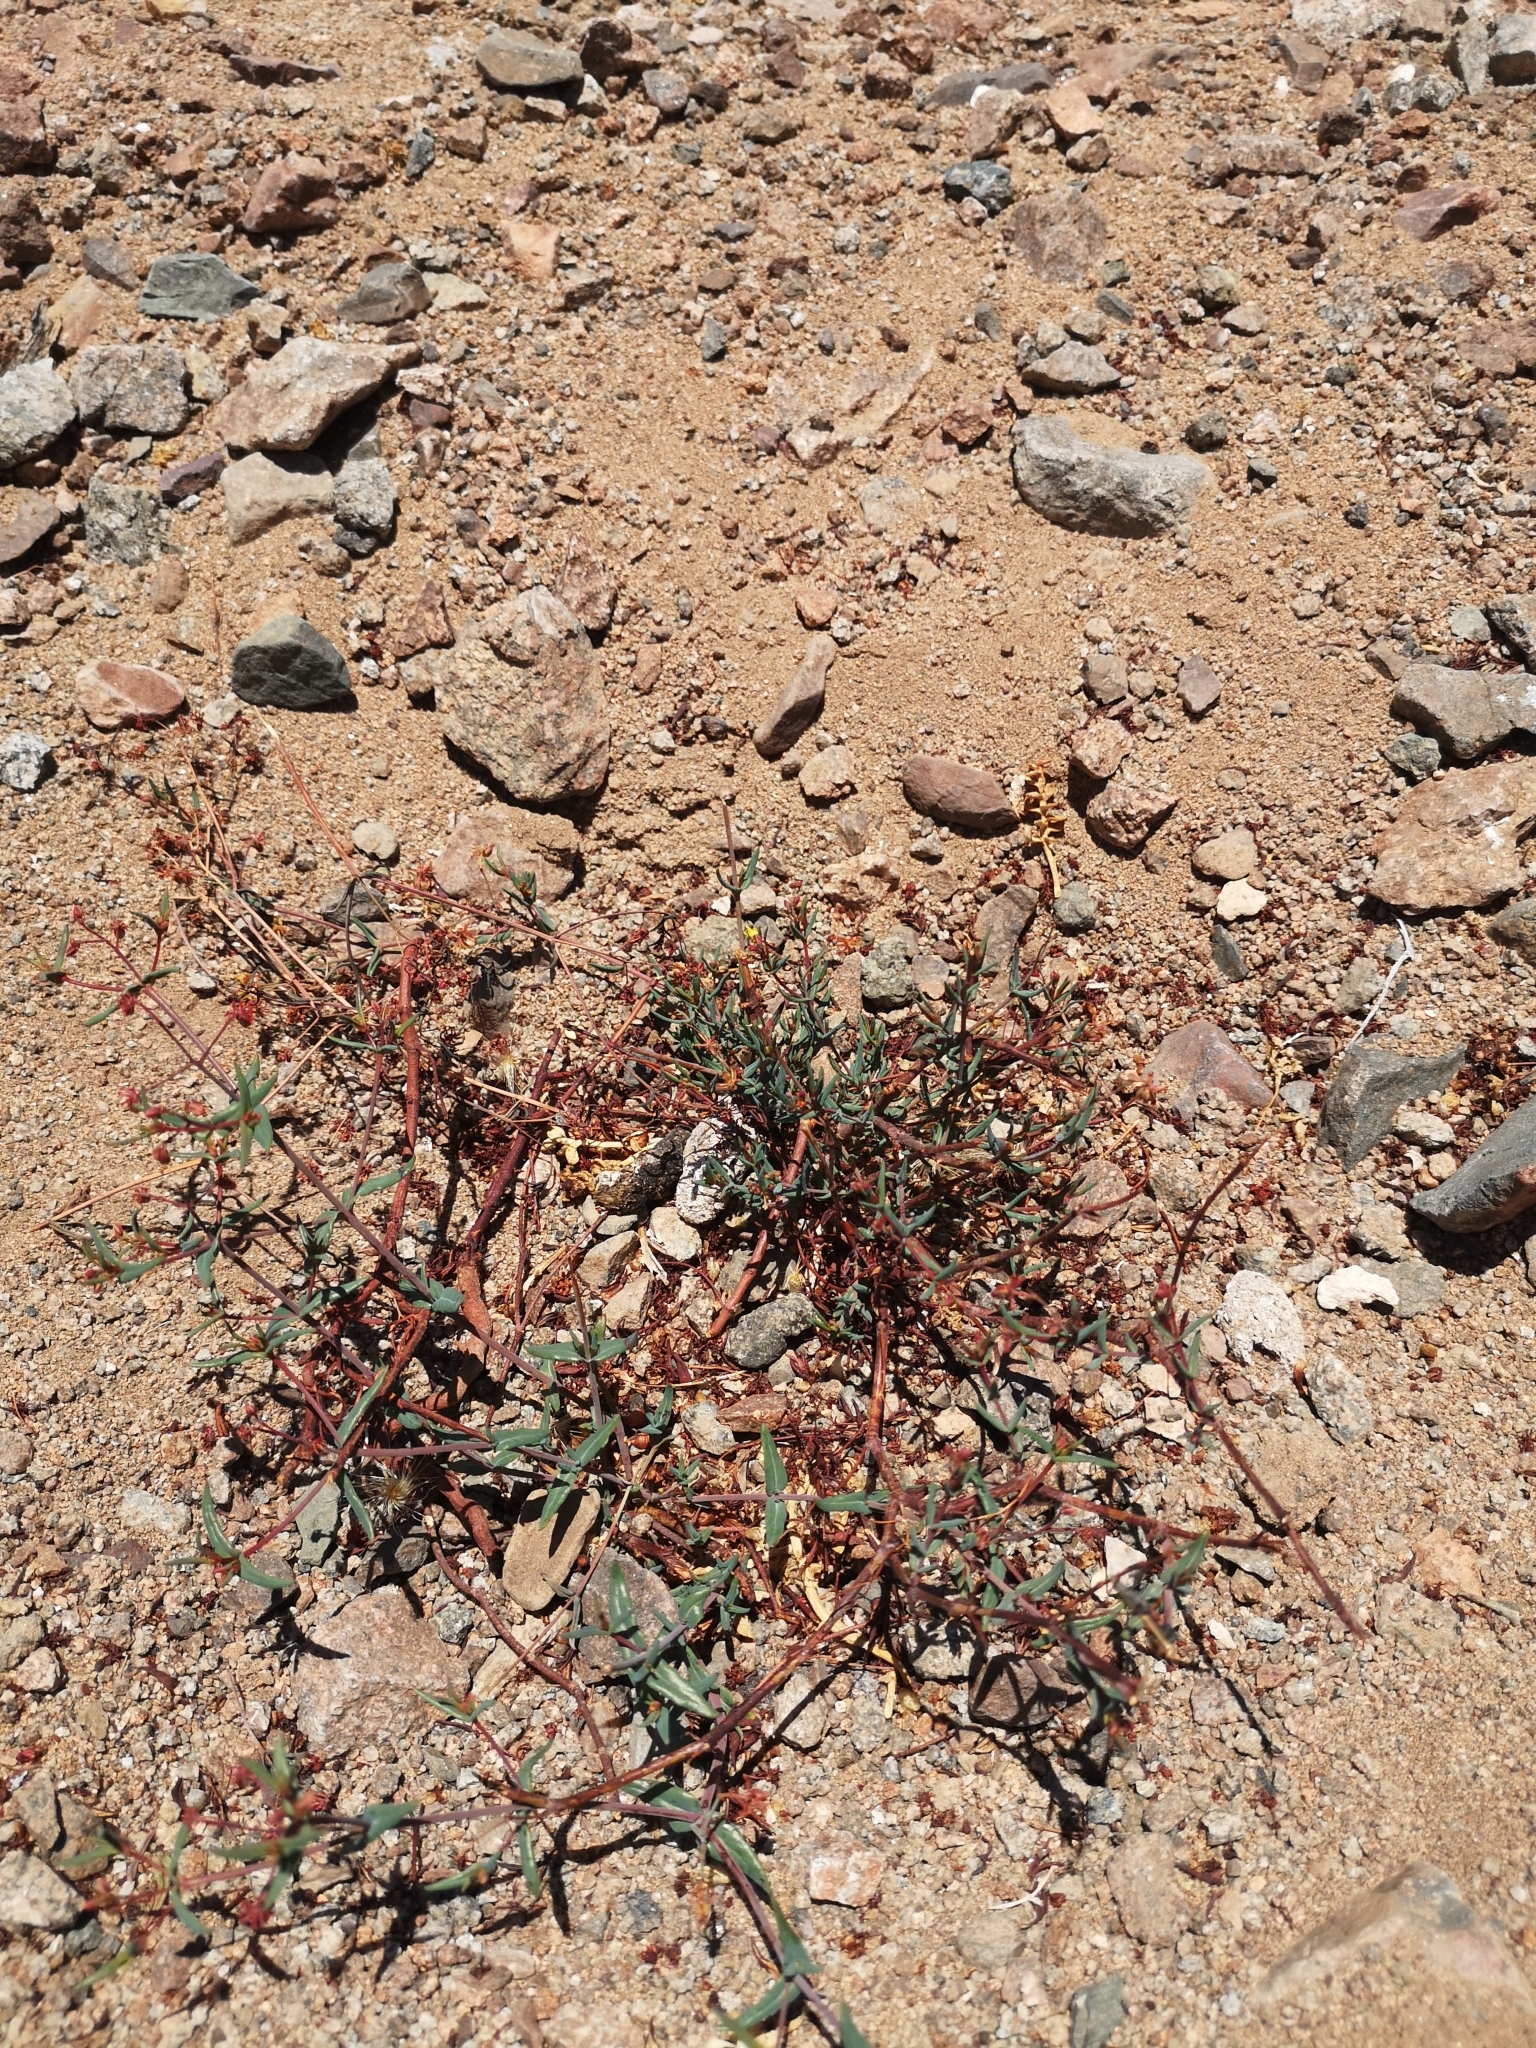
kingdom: Plantae
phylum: Tracheophyta
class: Magnoliopsida
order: Malpighiales
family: Malpighiaceae
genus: Dinemandra
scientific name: Dinemandra ericoides
